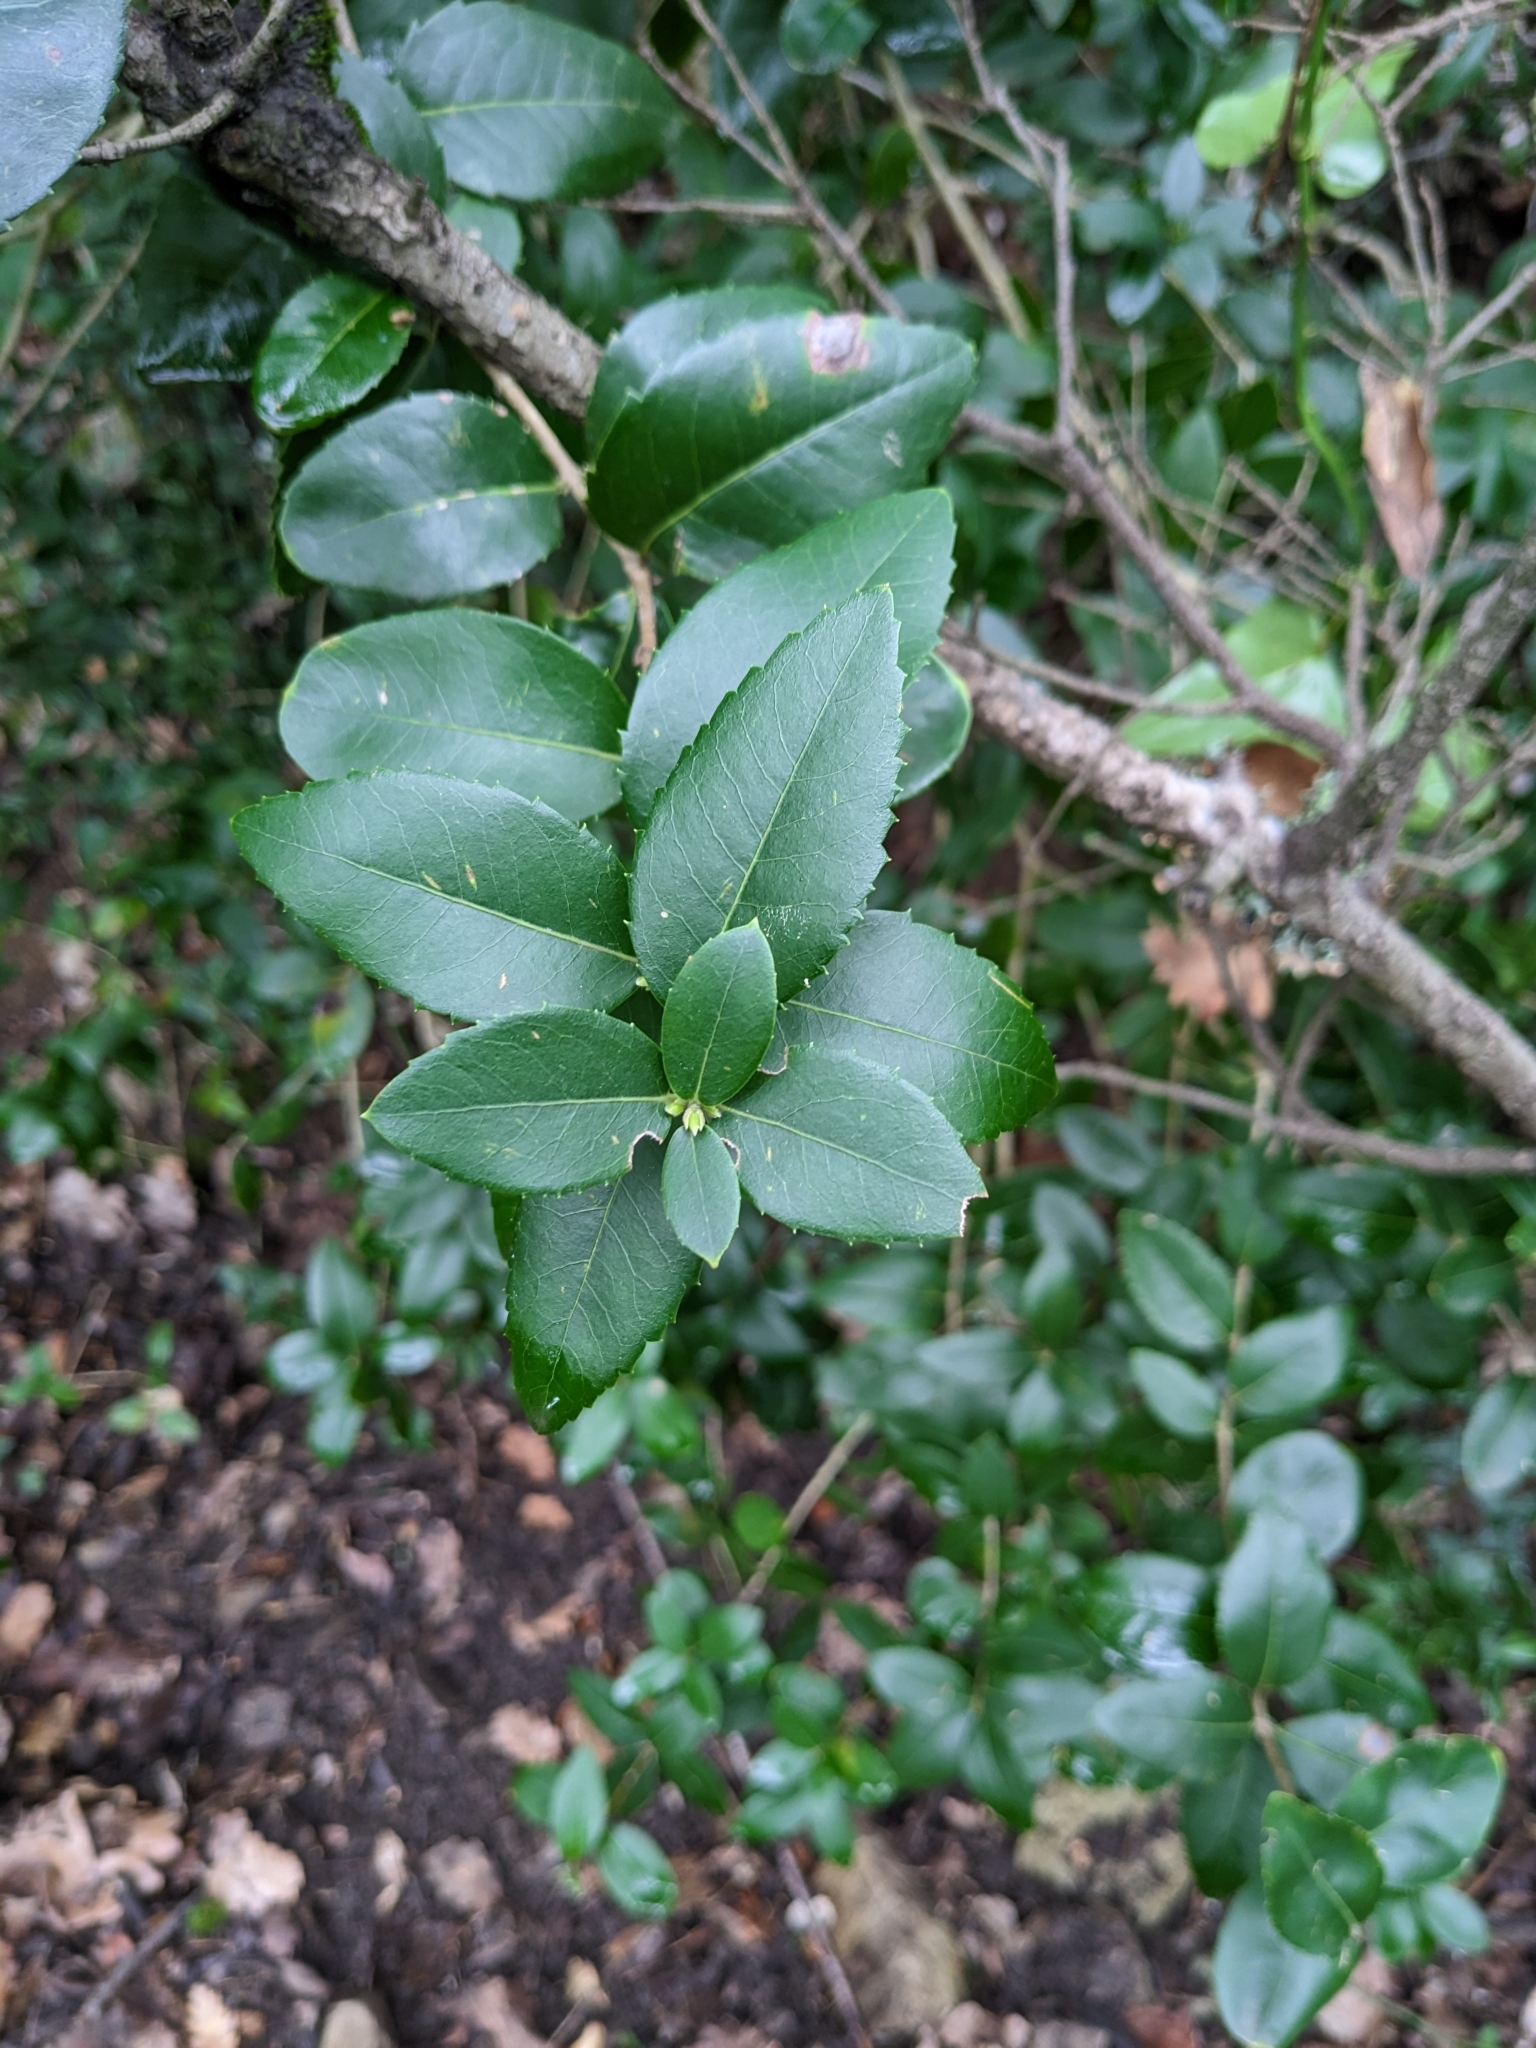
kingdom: Plantae
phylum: Tracheophyta
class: Magnoliopsida
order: Lamiales
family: Oleaceae
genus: Phillyrea
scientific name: Phillyrea latifolia
